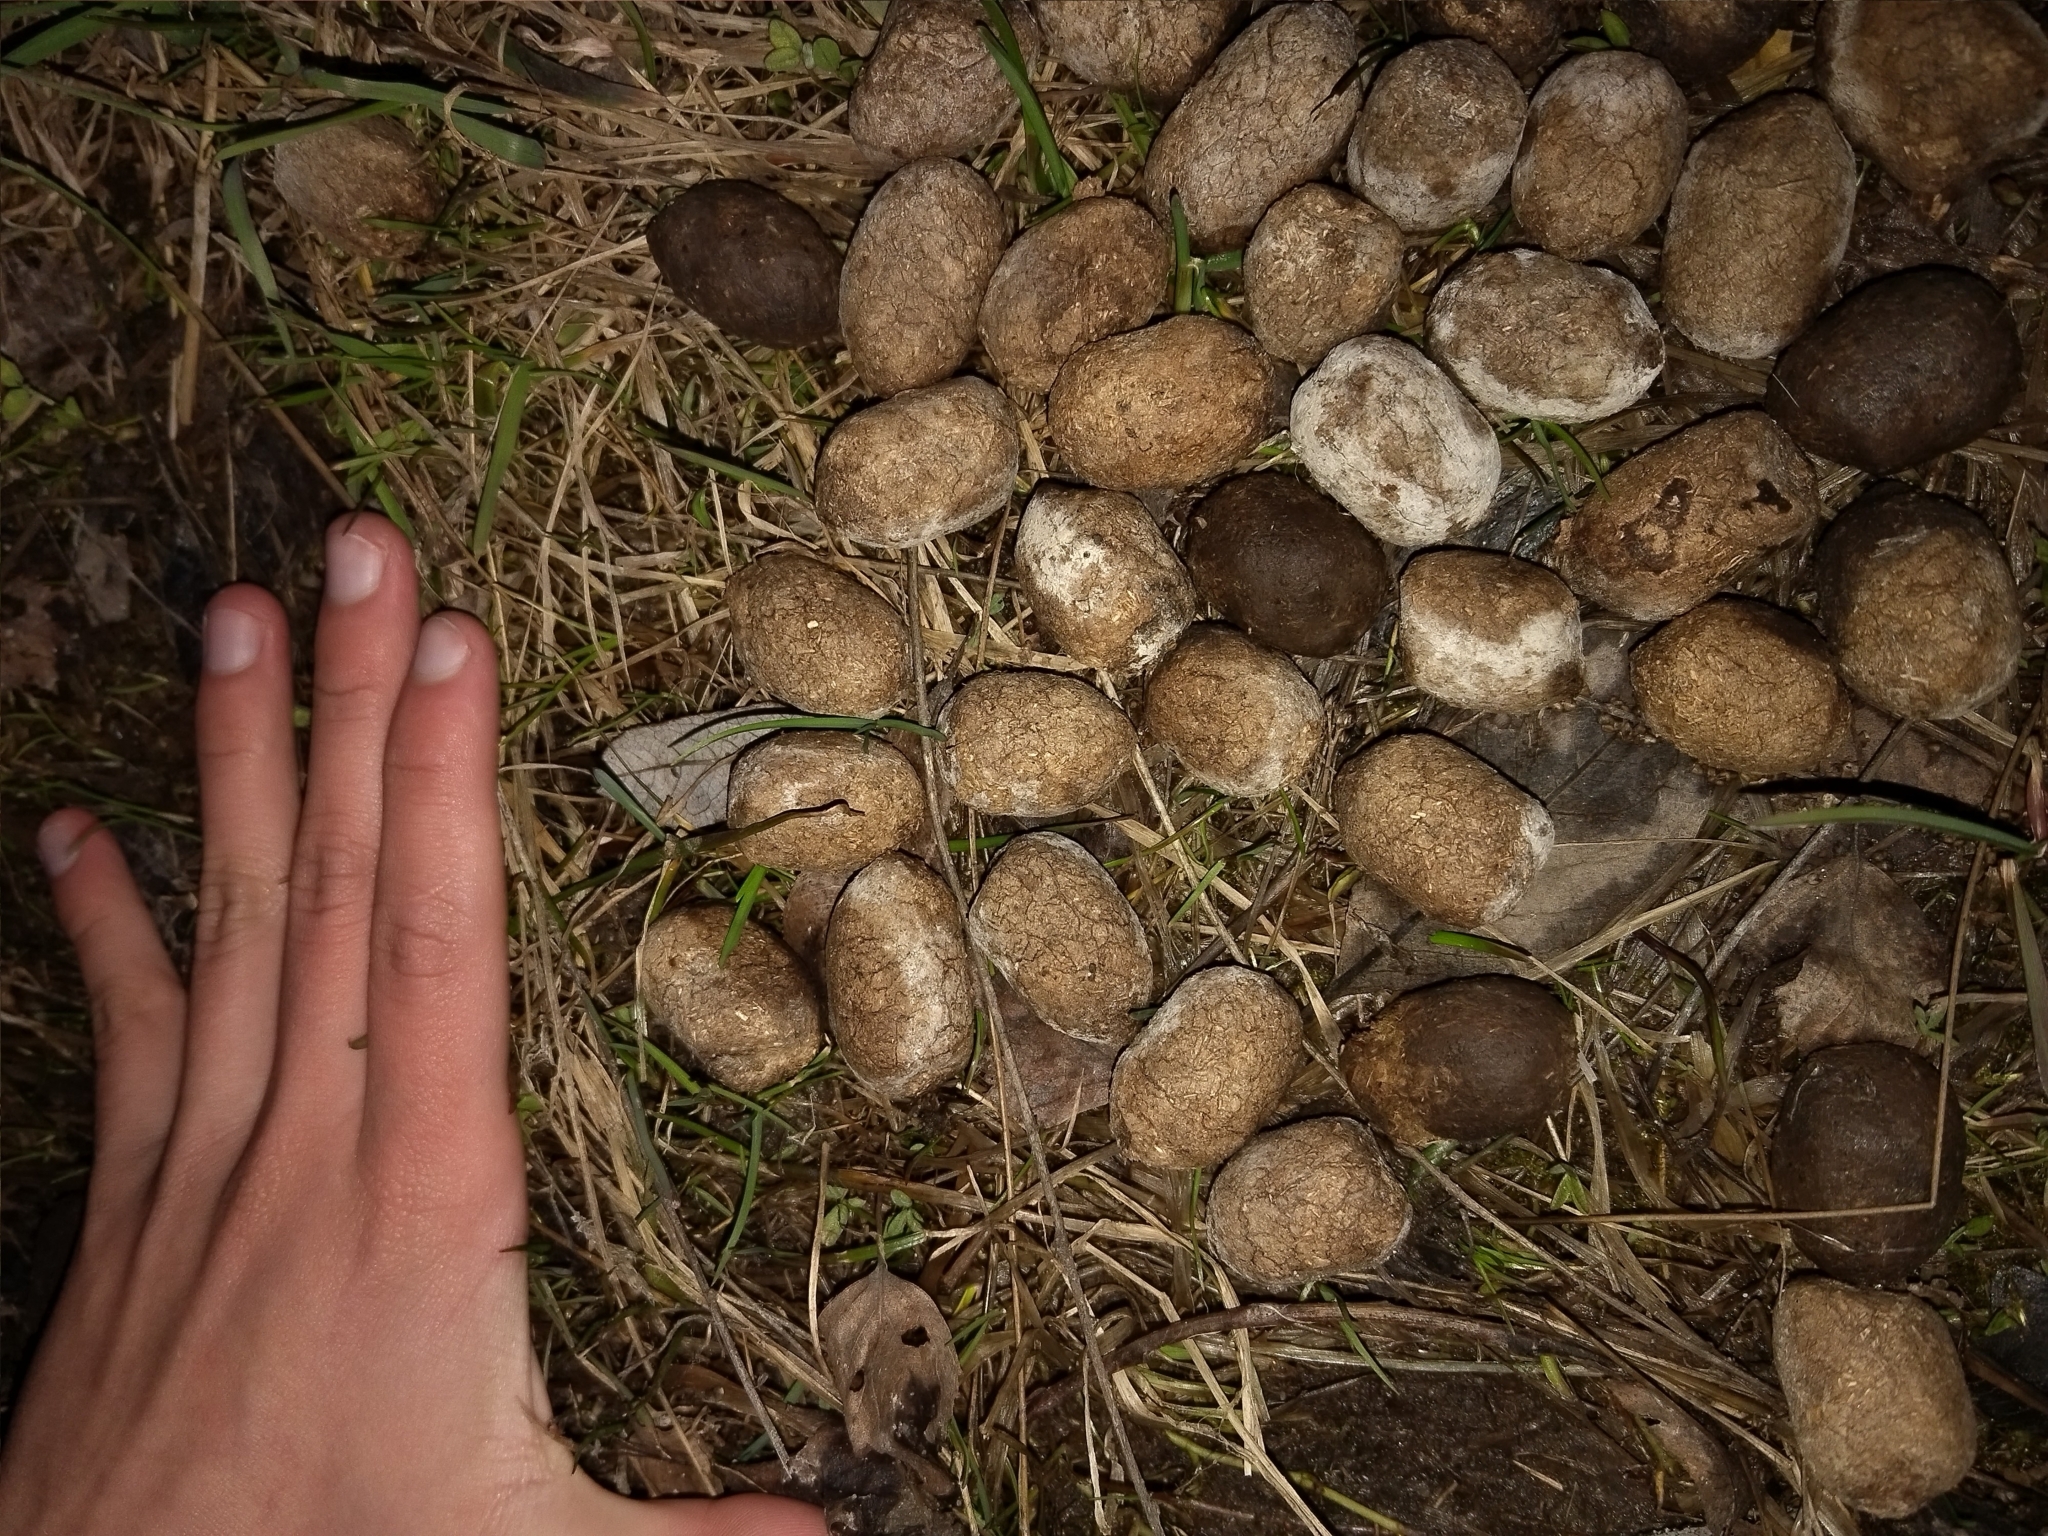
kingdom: Animalia
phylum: Chordata
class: Mammalia
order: Artiodactyla
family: Cervidae
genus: Alces
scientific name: Alces alces
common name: Moose
